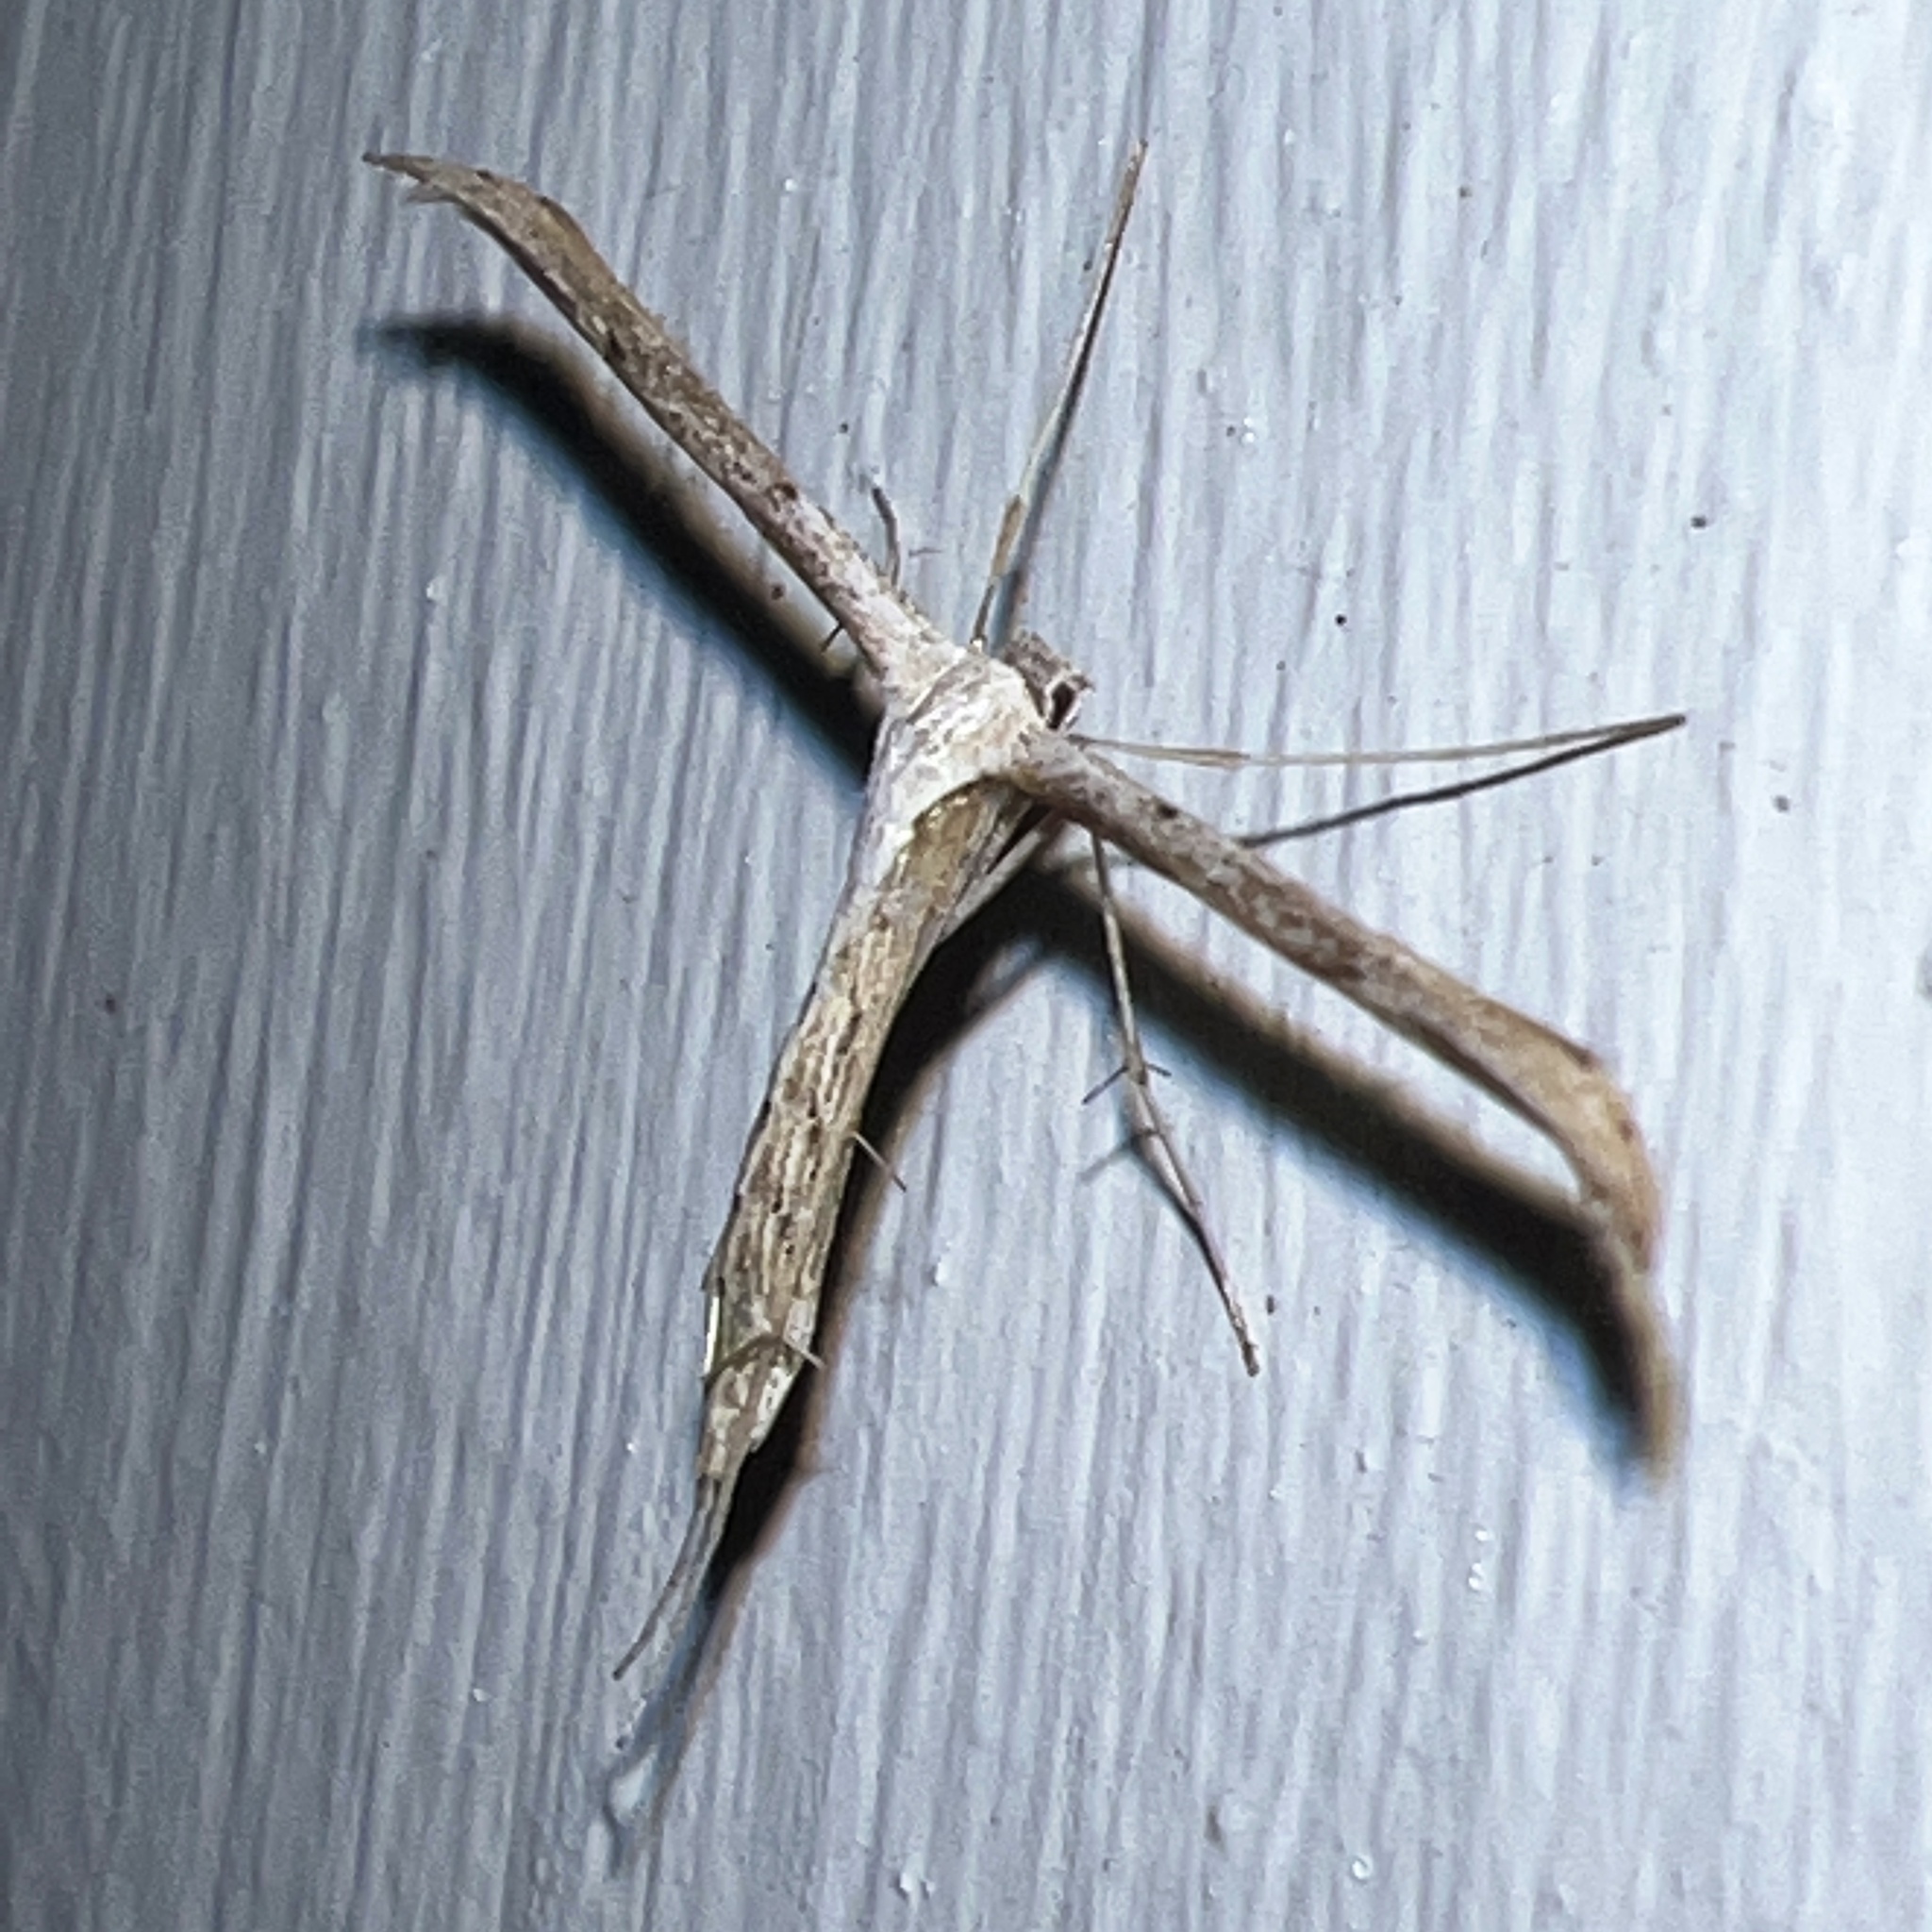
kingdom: Animalia
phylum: Arthropoda
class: Insecta
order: Lepidoptera
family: Pterophoridae
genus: Emmelina
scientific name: Emmelina monodactyla
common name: Common plume
